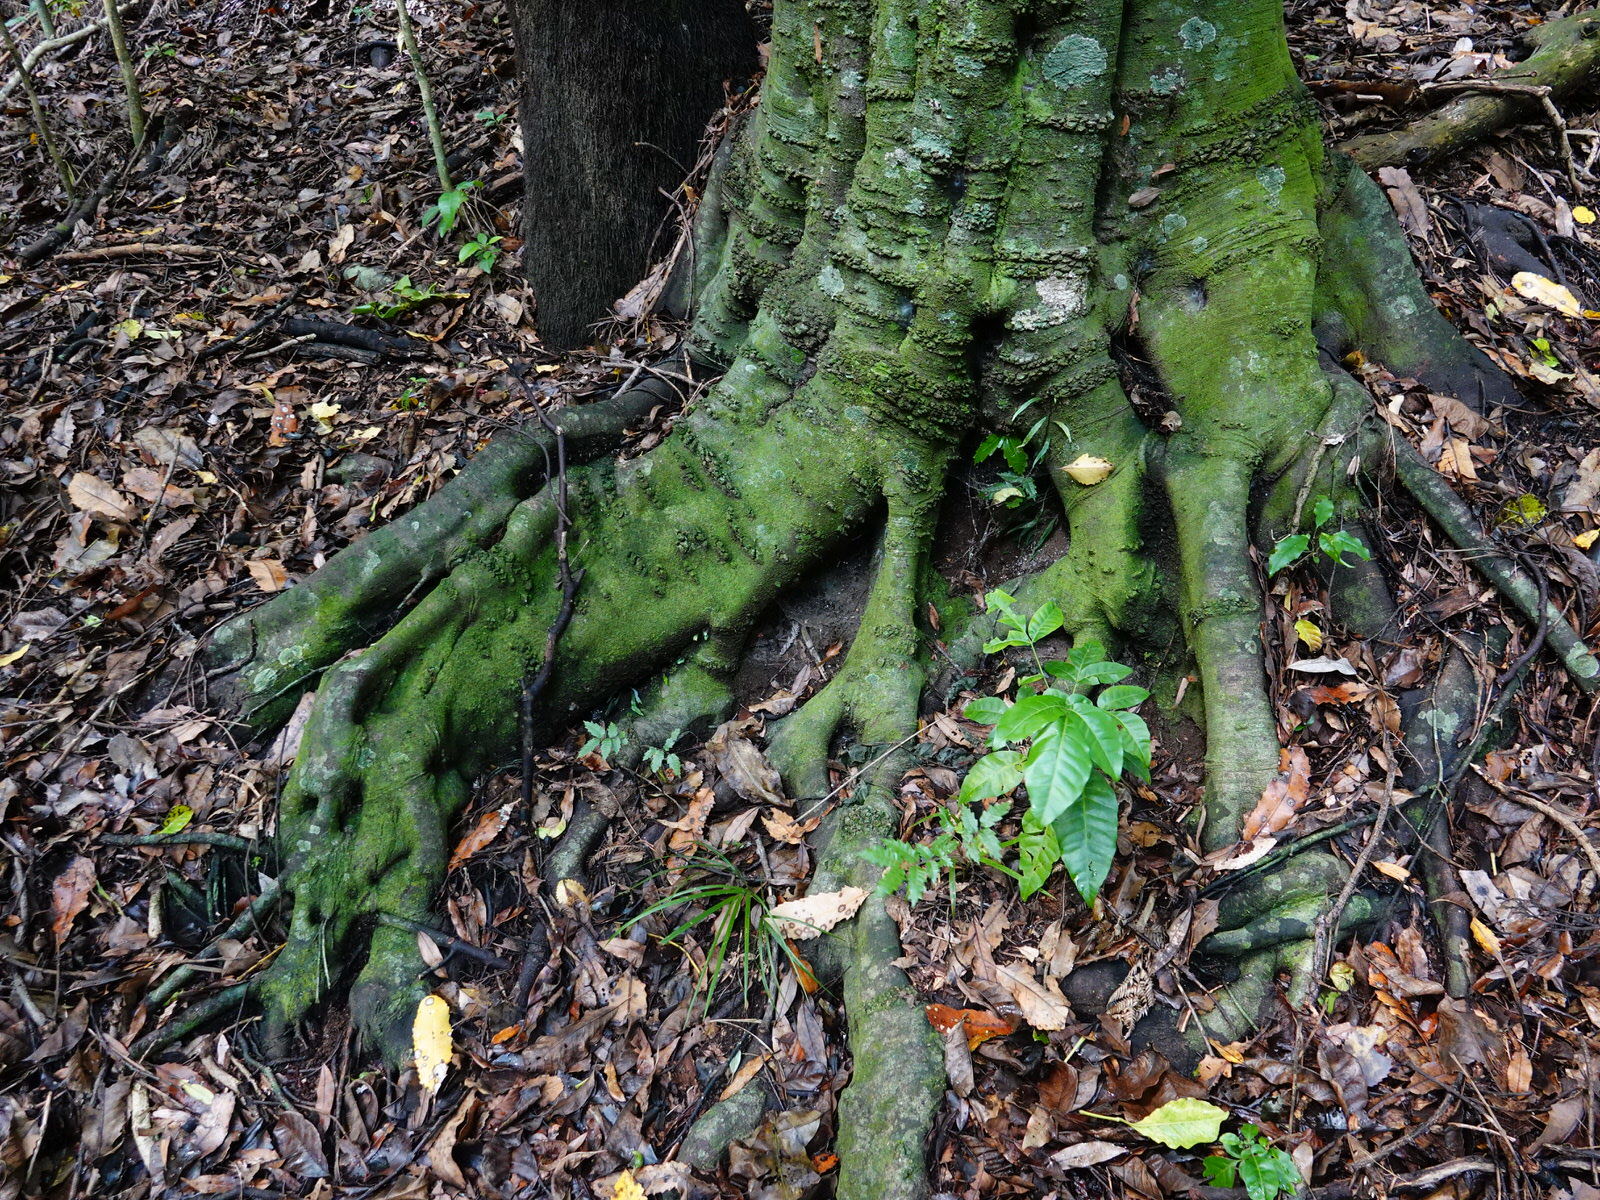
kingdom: Plantae
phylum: Tracheophyta
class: Magnoliopsida
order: Sapindales
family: Sapindaceae
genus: Alectryon
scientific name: Alectryon excelsus
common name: Three kings titoki
